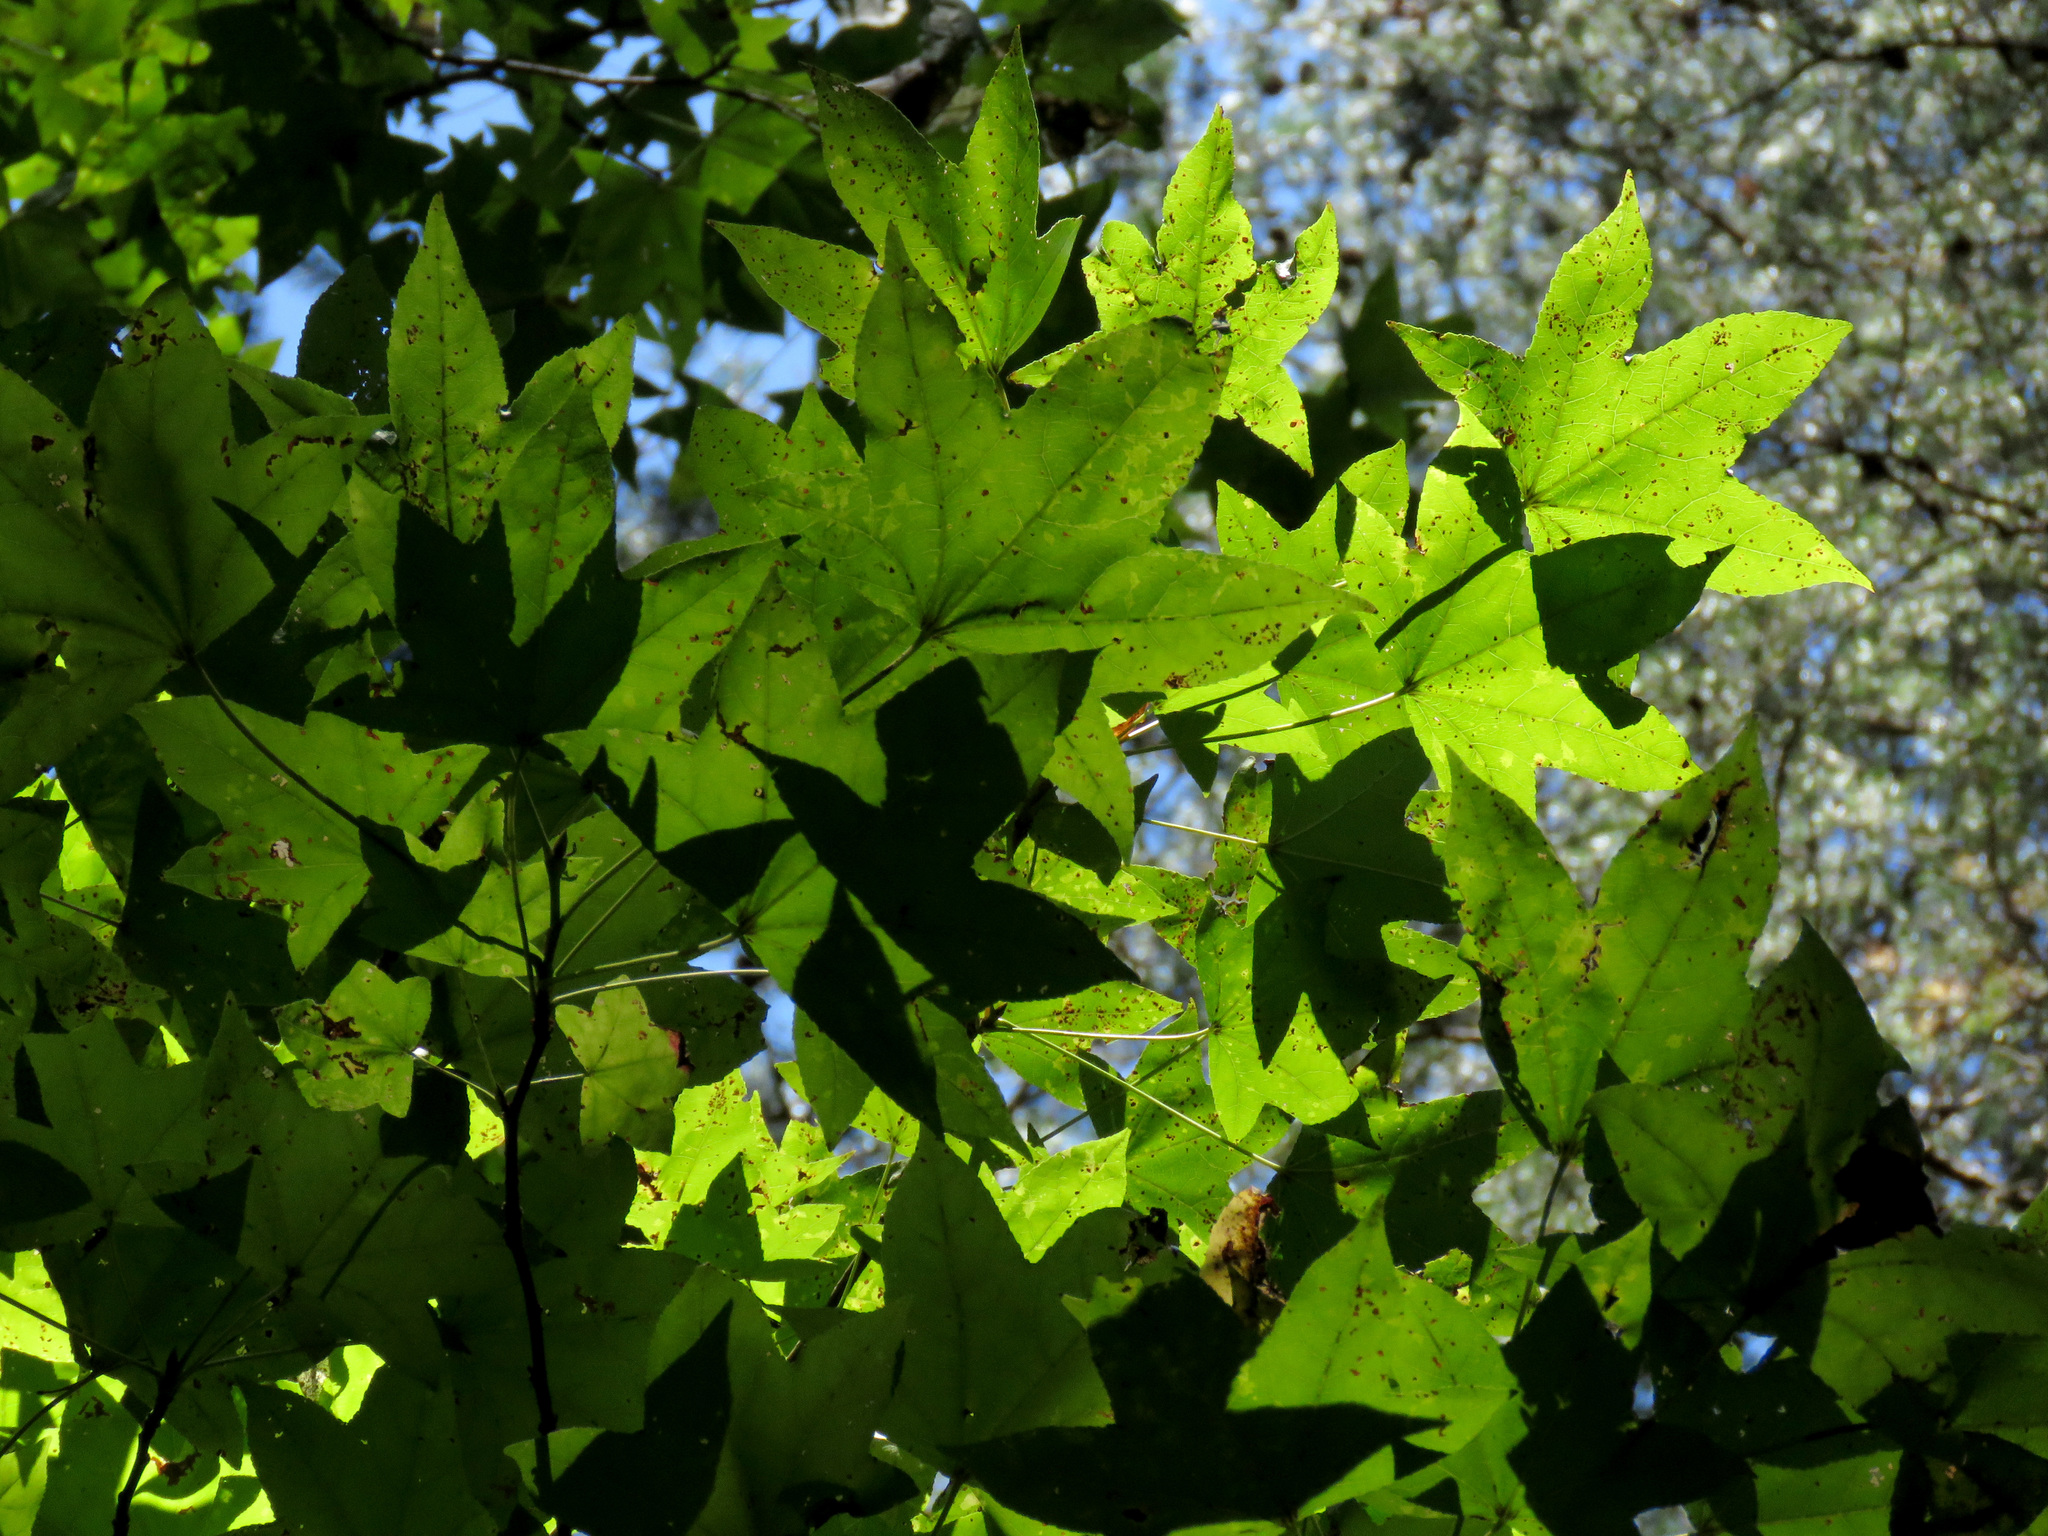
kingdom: Plantae
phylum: Tracheophyta
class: Magnoliopsida
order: Saxifragales
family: Altingiaceae
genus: Liquidambar
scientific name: Liquidambar styraciflua
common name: Sweet gum
